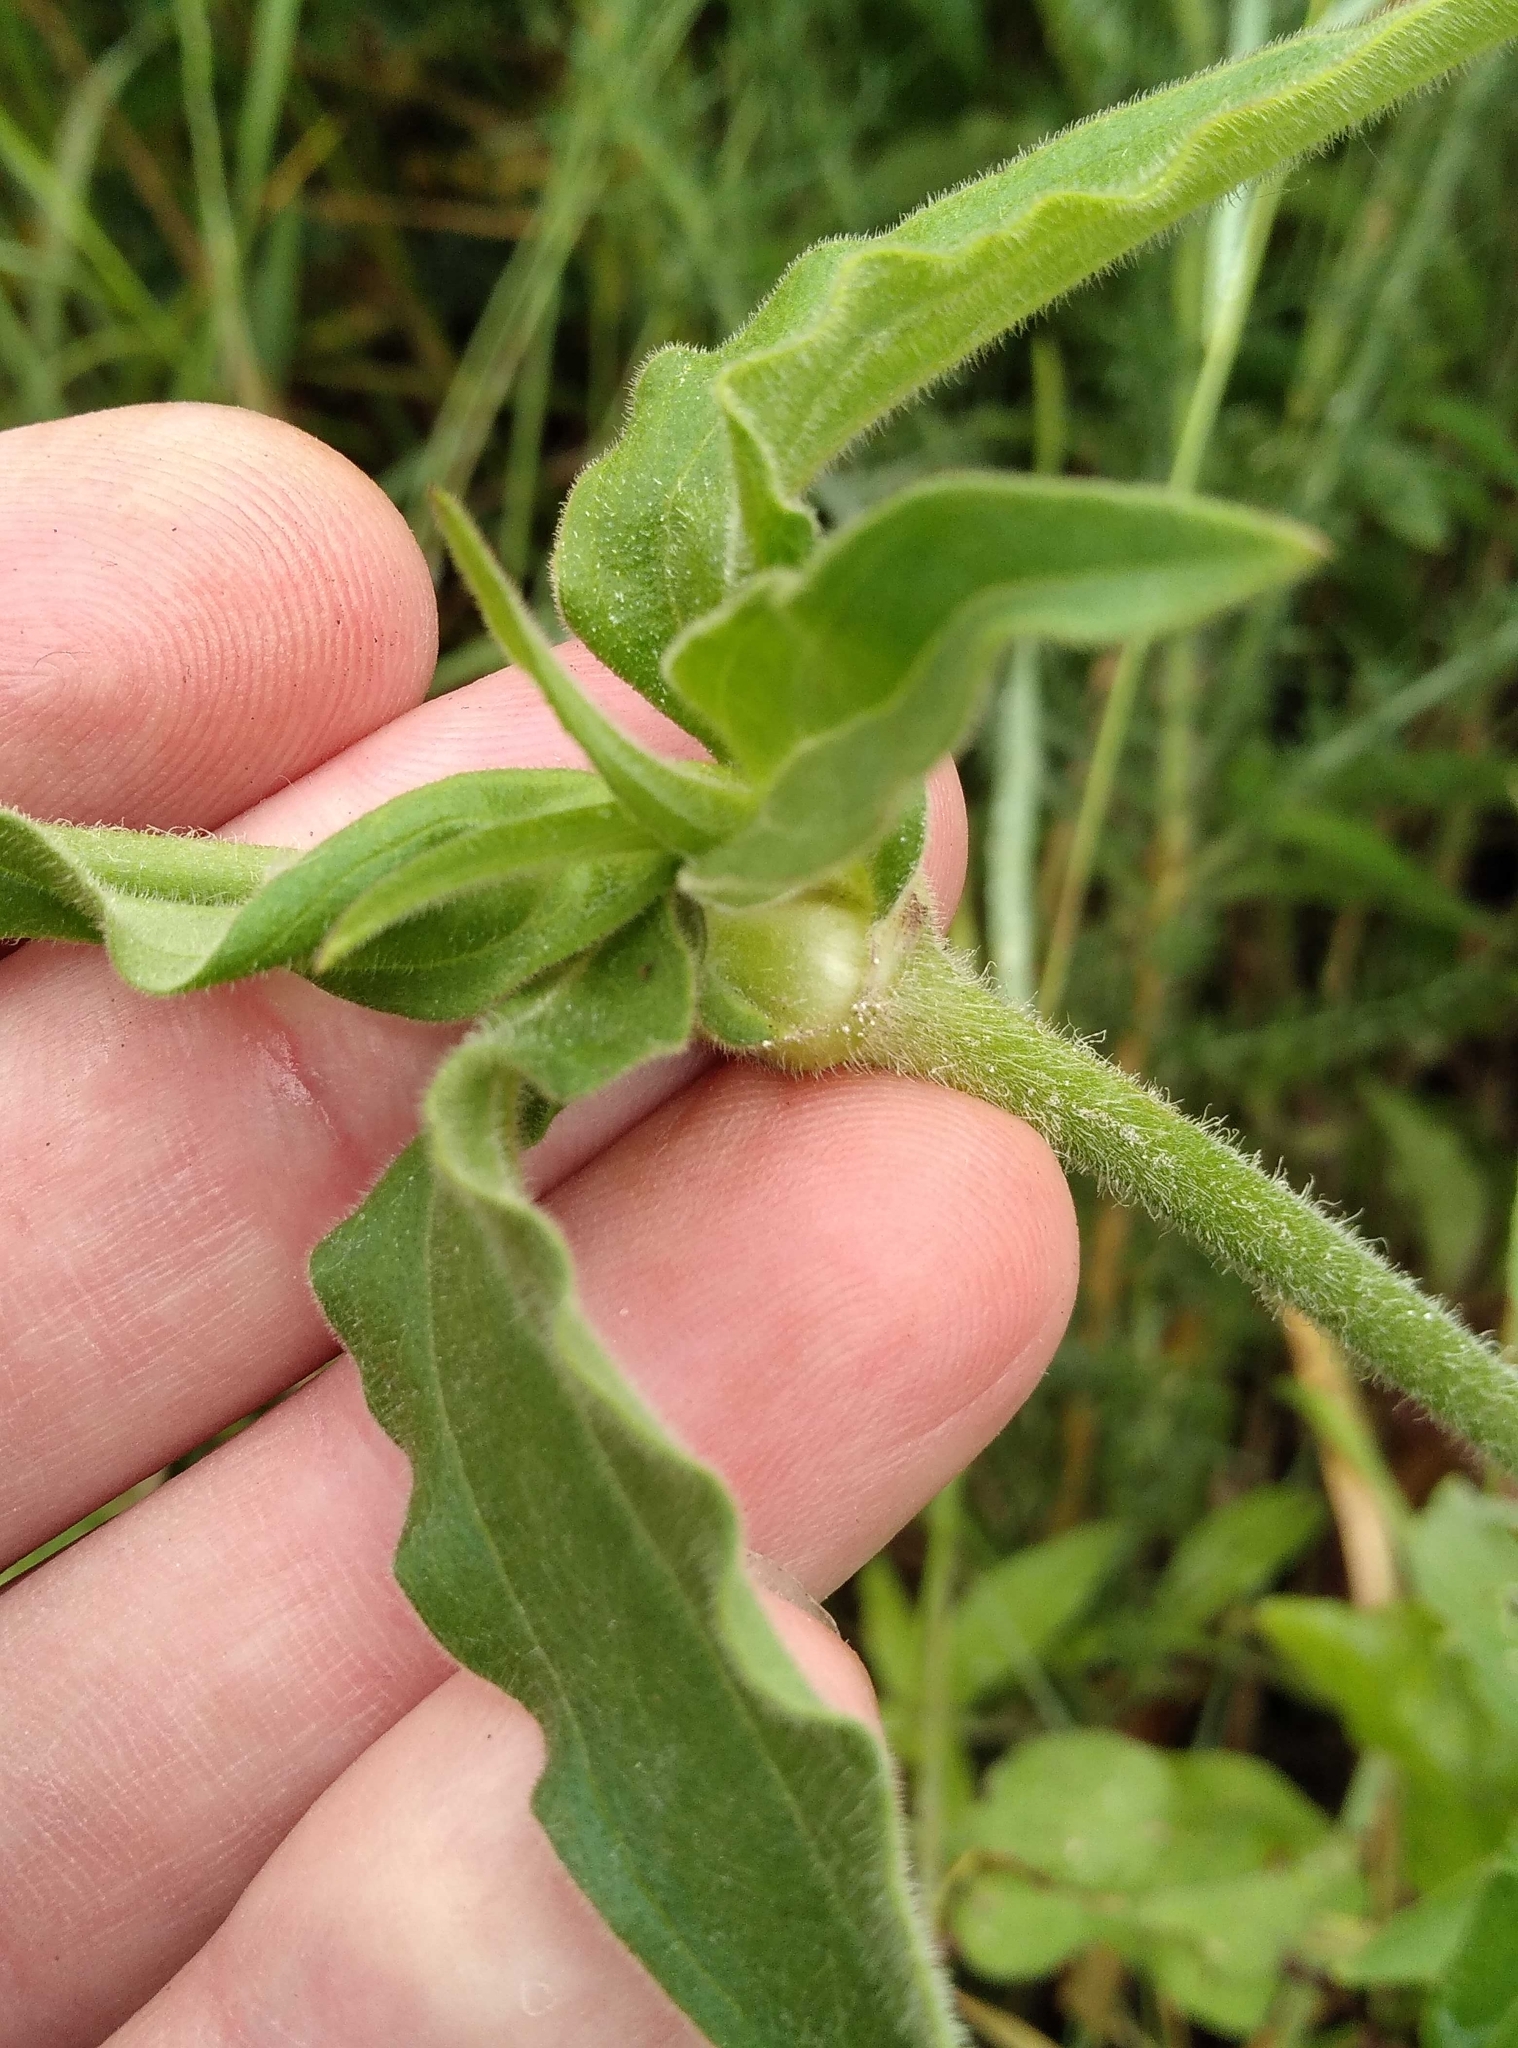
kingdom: Plantae
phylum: Tracheophyta
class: Magnoliopsida
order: Caryophyllales
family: Caryophyllaceae
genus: Silene
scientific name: Silene latifolia
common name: White campion
